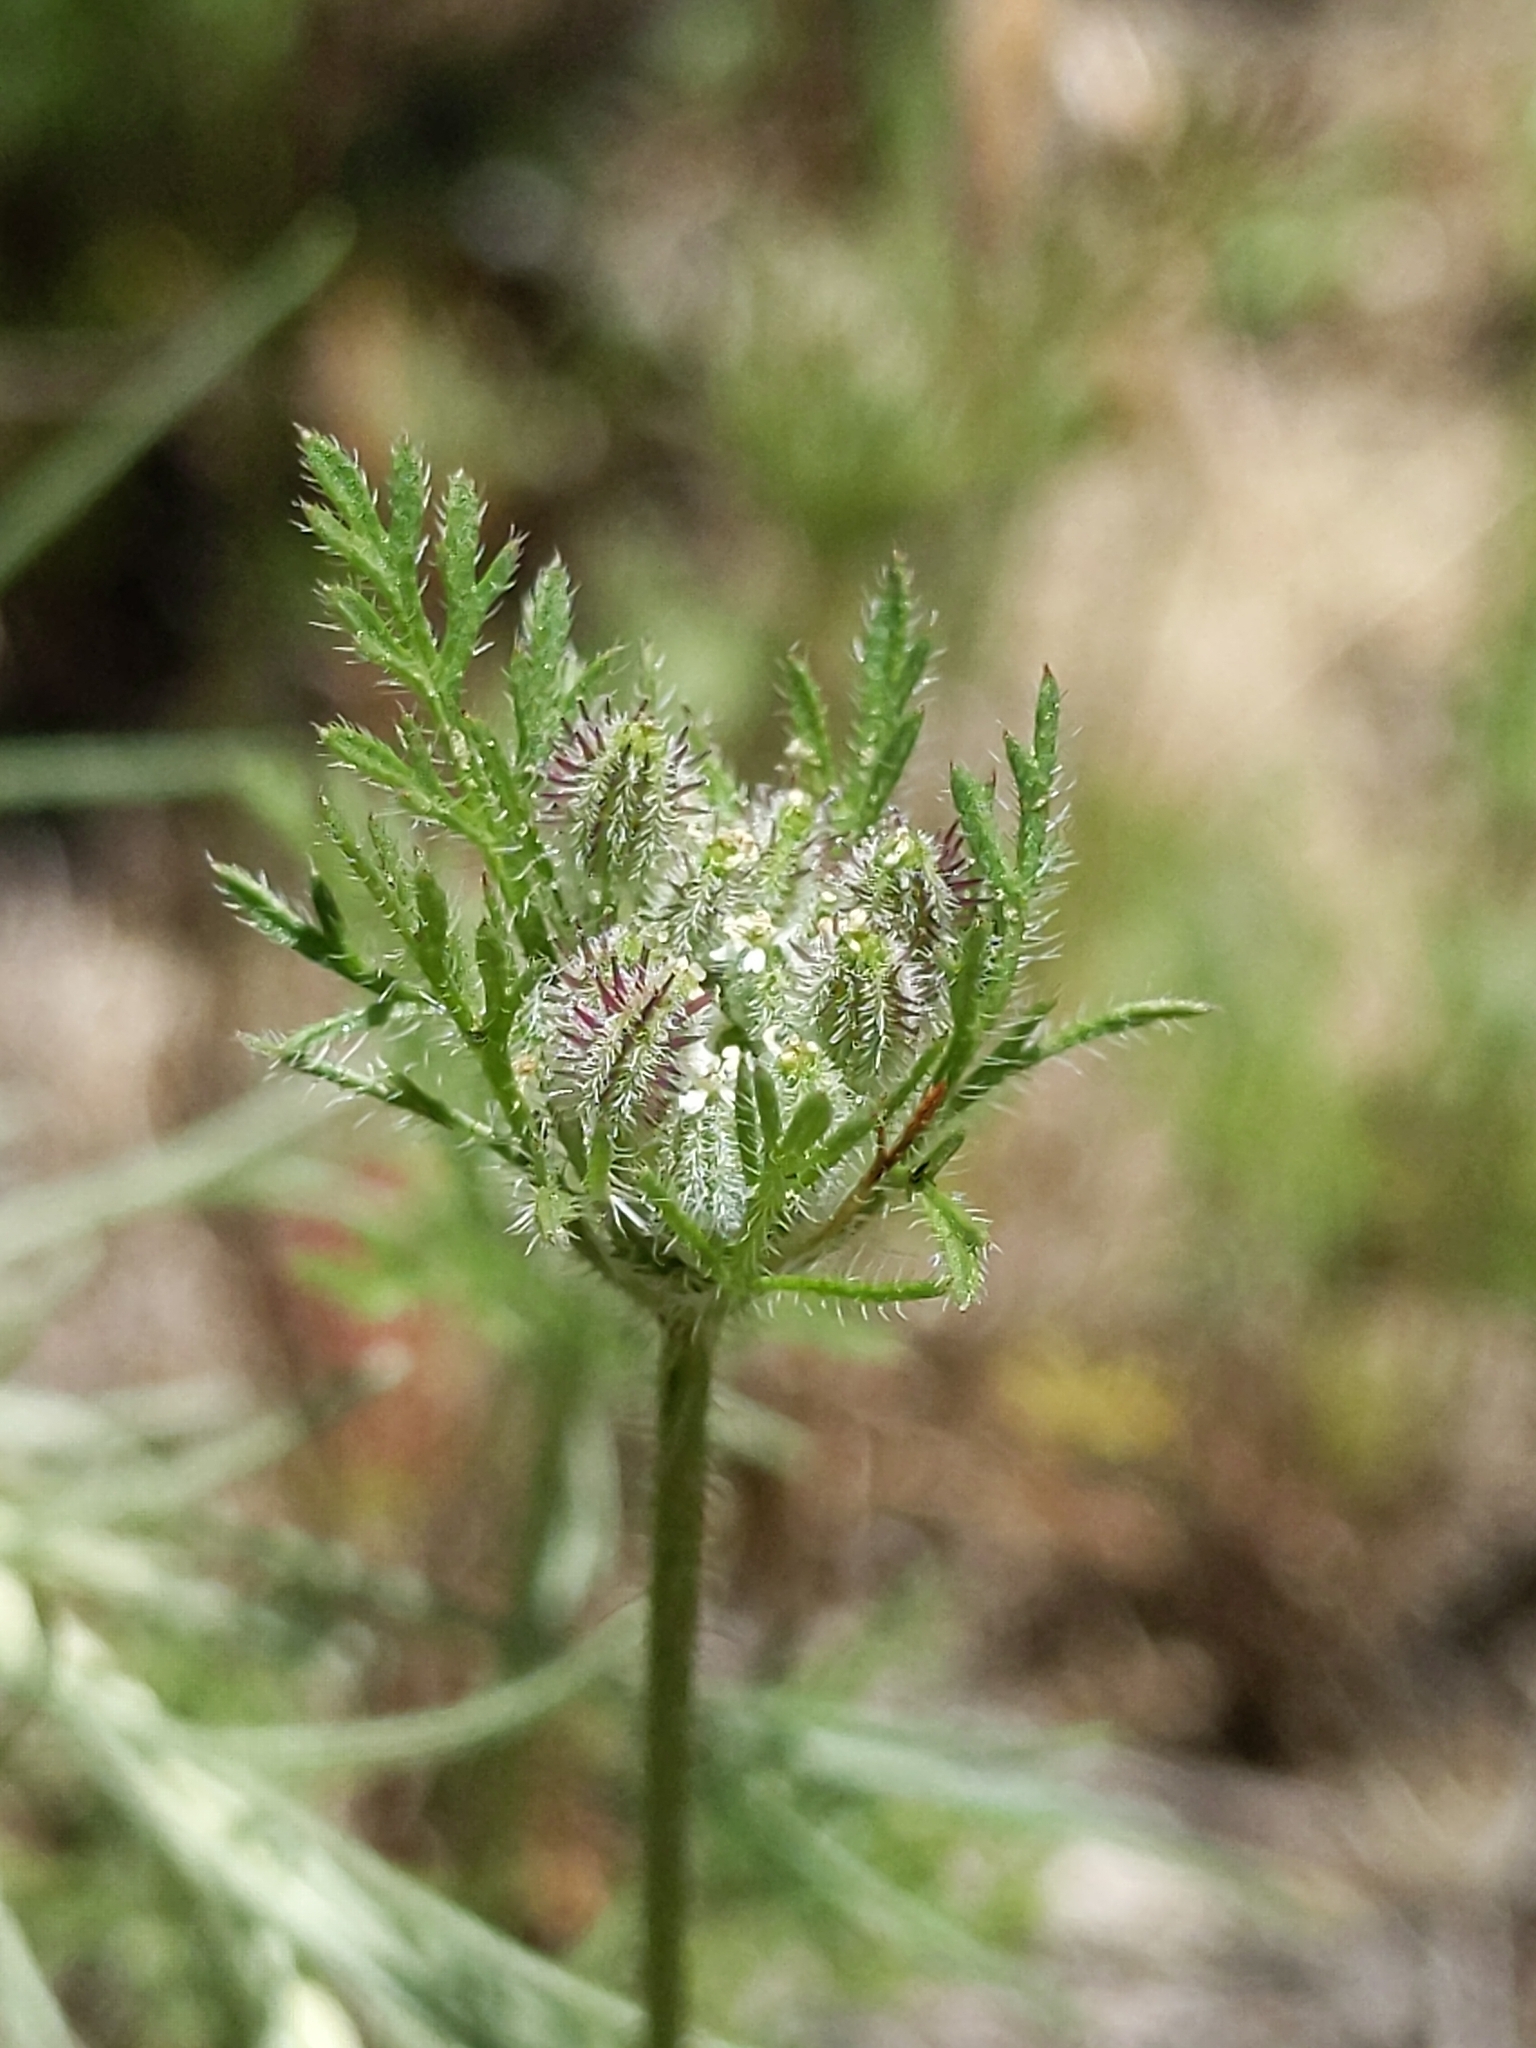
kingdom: Plantae
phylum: Tracheophyta
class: Magnoliopsida
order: Apiales
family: Apiaceae
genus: Daucus
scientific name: Daucus pusillus
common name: Southwest wild carrot
